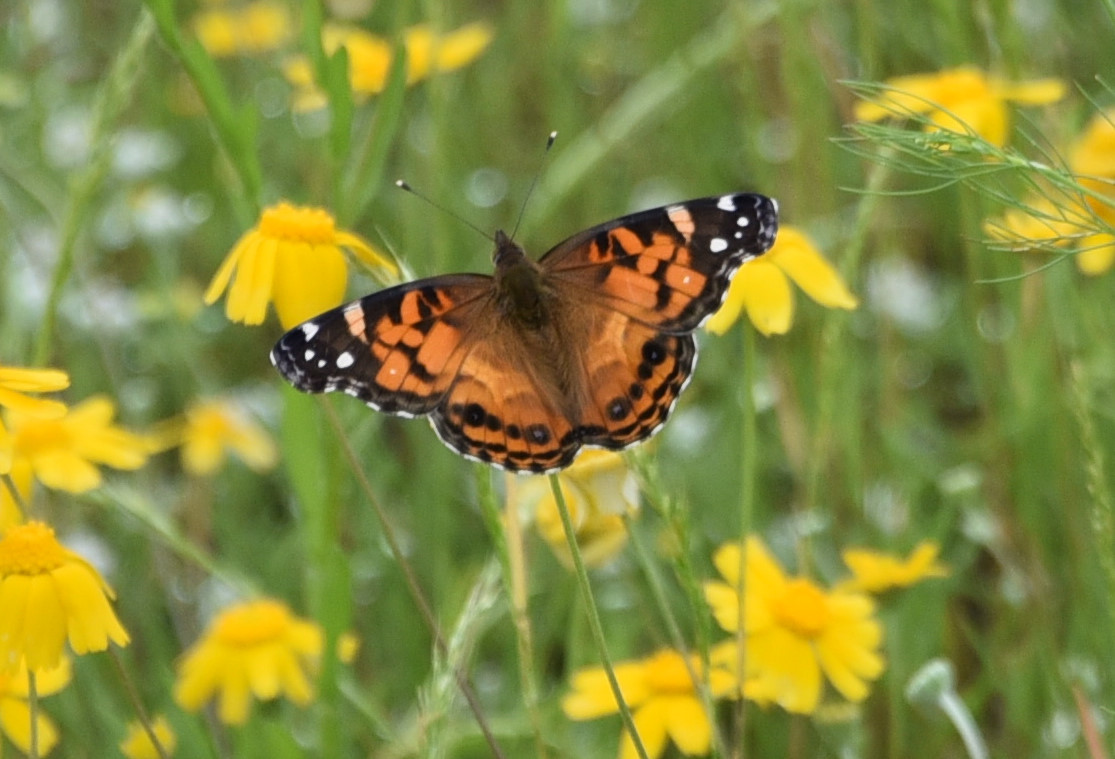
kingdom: Animalia
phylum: Arthropoda
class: Insecta
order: Lepidoptera
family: Nymphalidae
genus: Vanessa
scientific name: Vanessa virginiensis
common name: American lady
